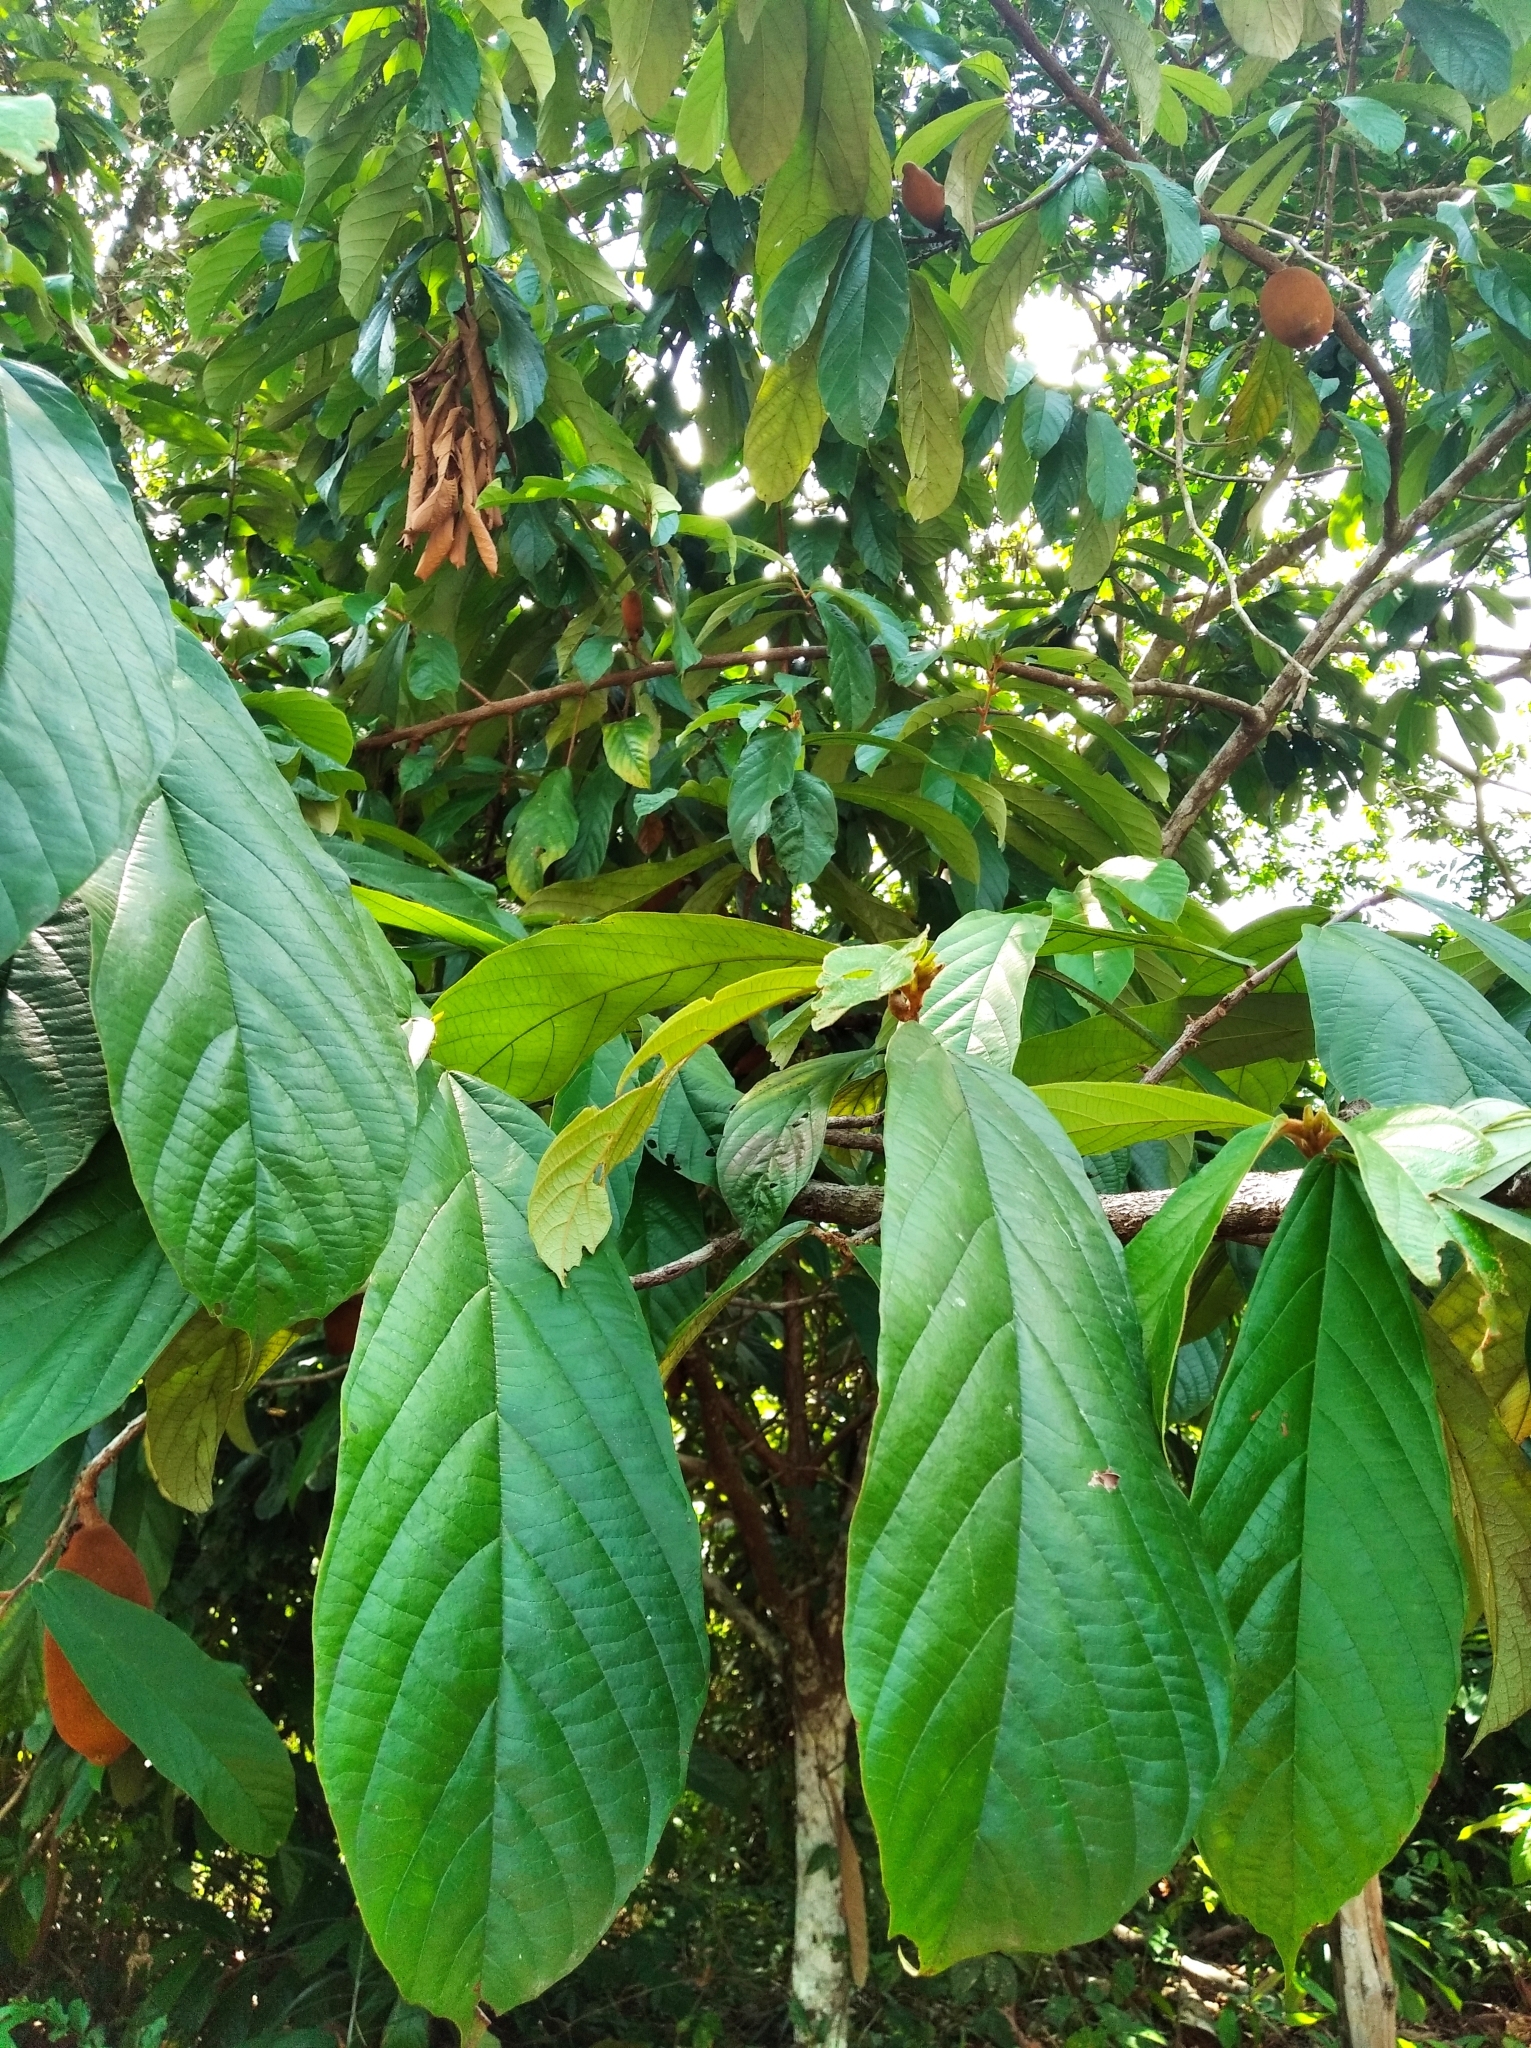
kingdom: Plantae
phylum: Tracheophyta
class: Magnoliopsida
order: Malvales
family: Malvaceae
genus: Theobroma
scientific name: Theobroma grandiflorum
